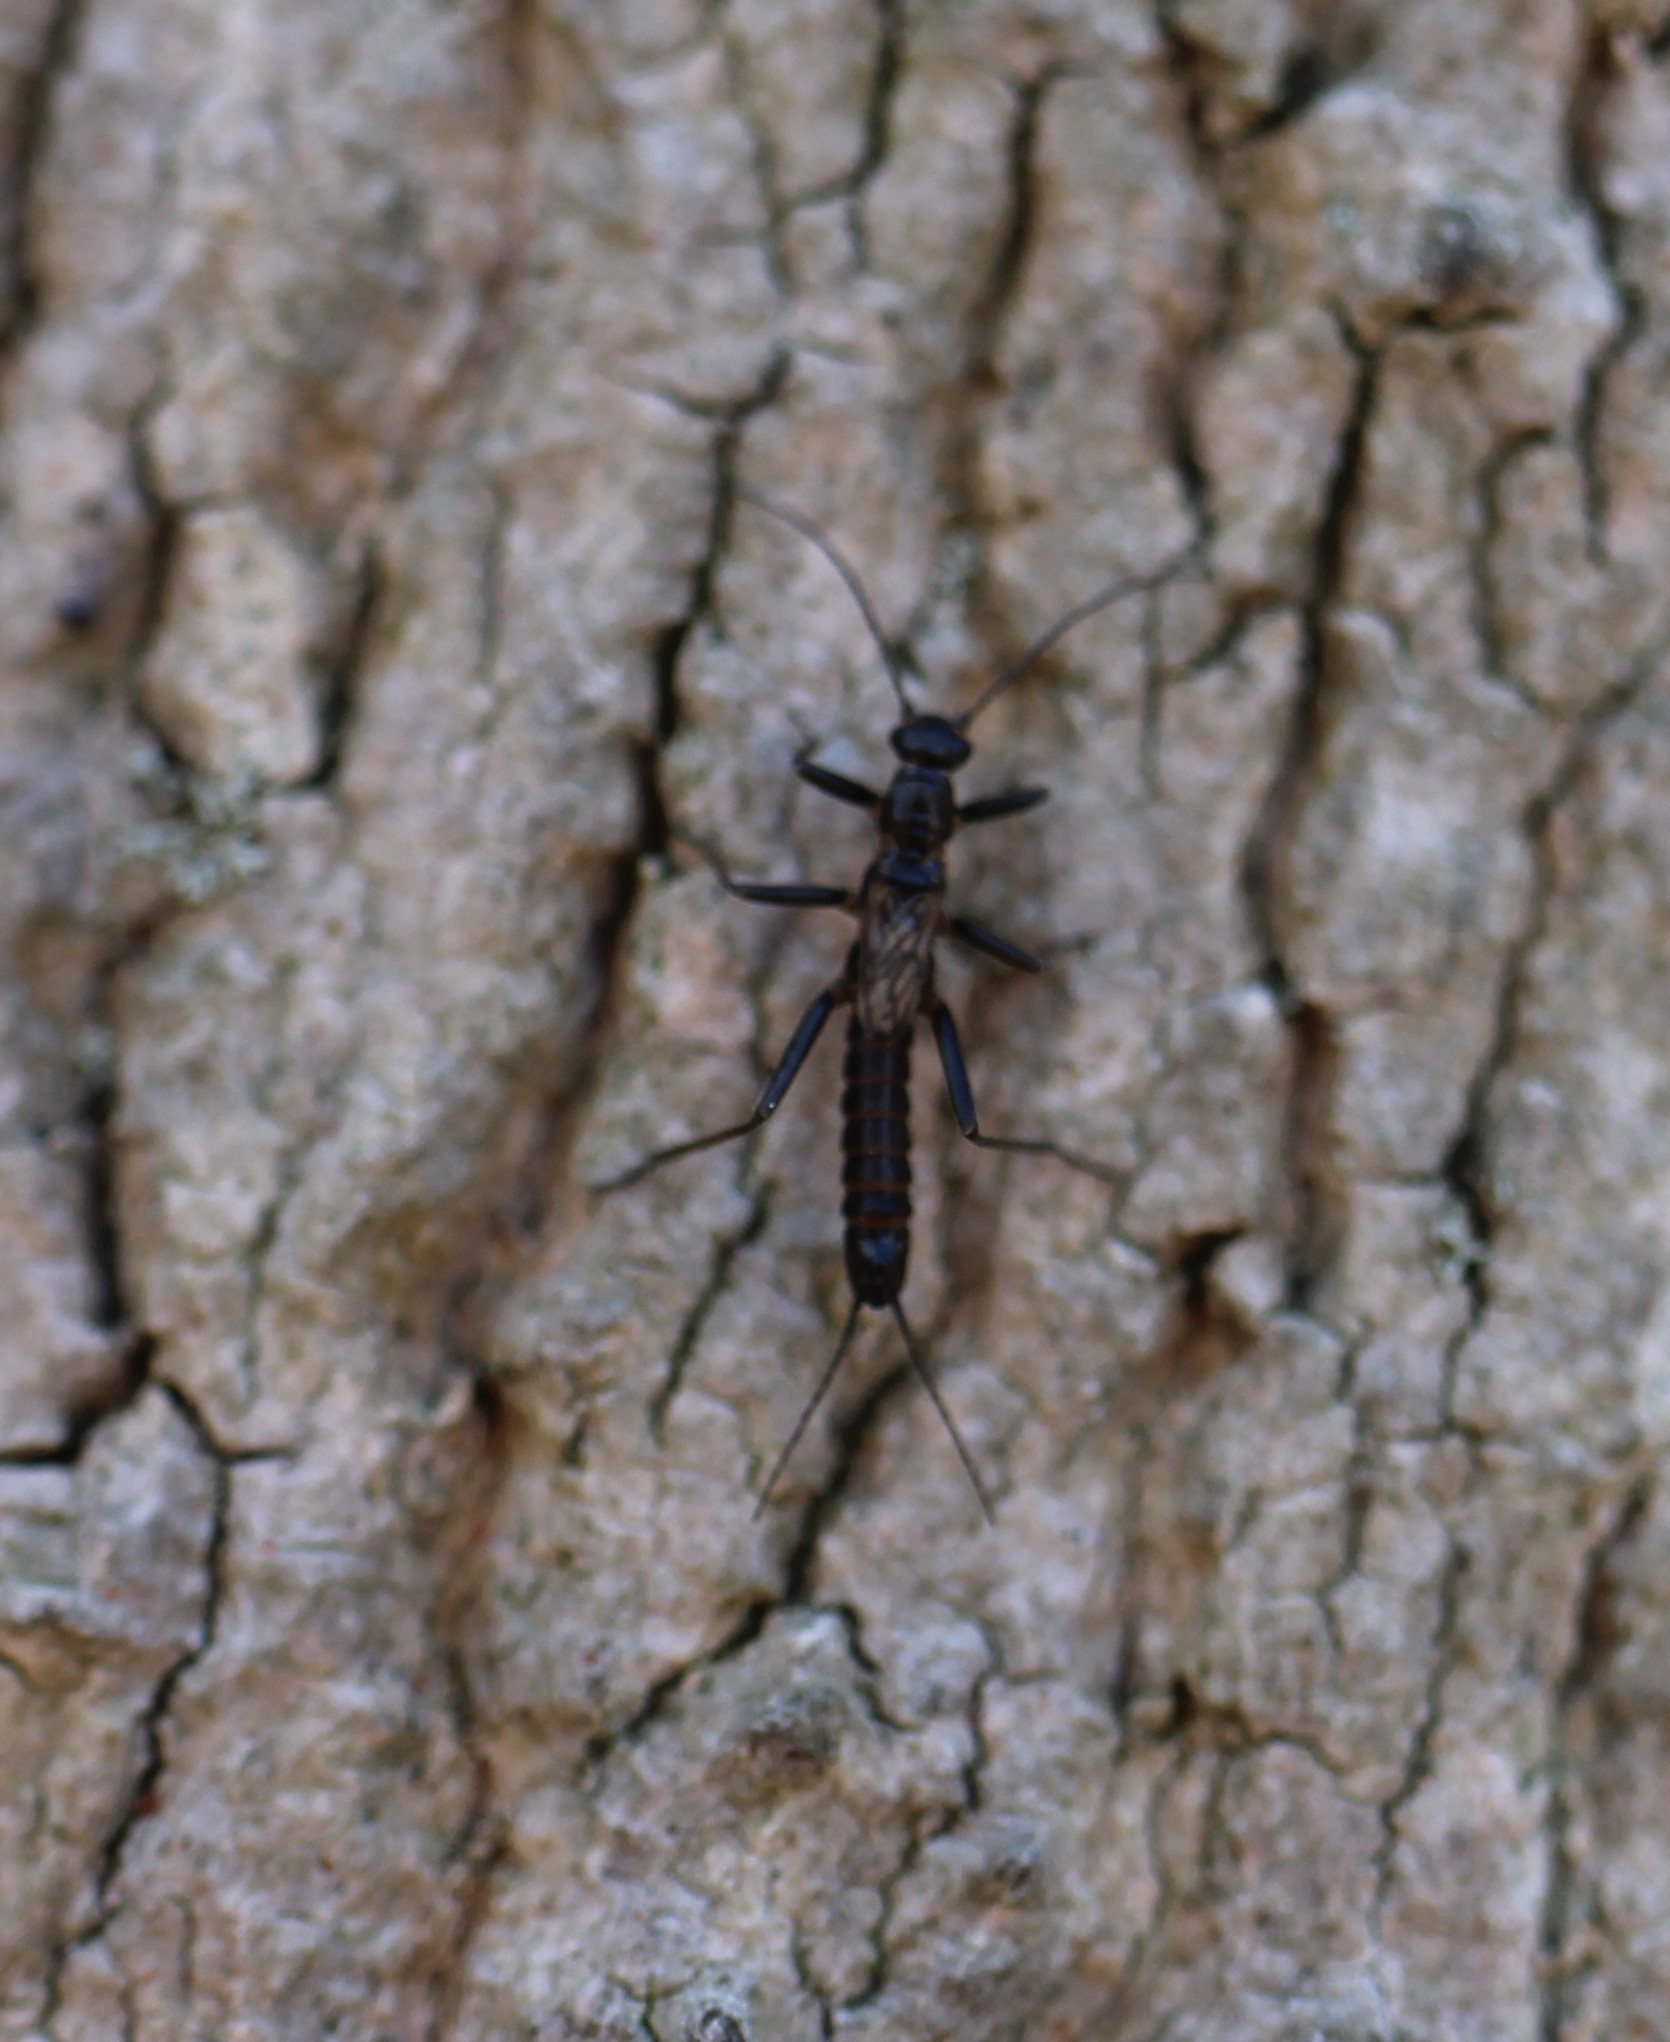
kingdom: Animalia
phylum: Arthropoda
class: Insecta
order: Plecoptera
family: Capniidae
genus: Allocapnia
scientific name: Allocapnia vivipara
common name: Shortwing snowfly
